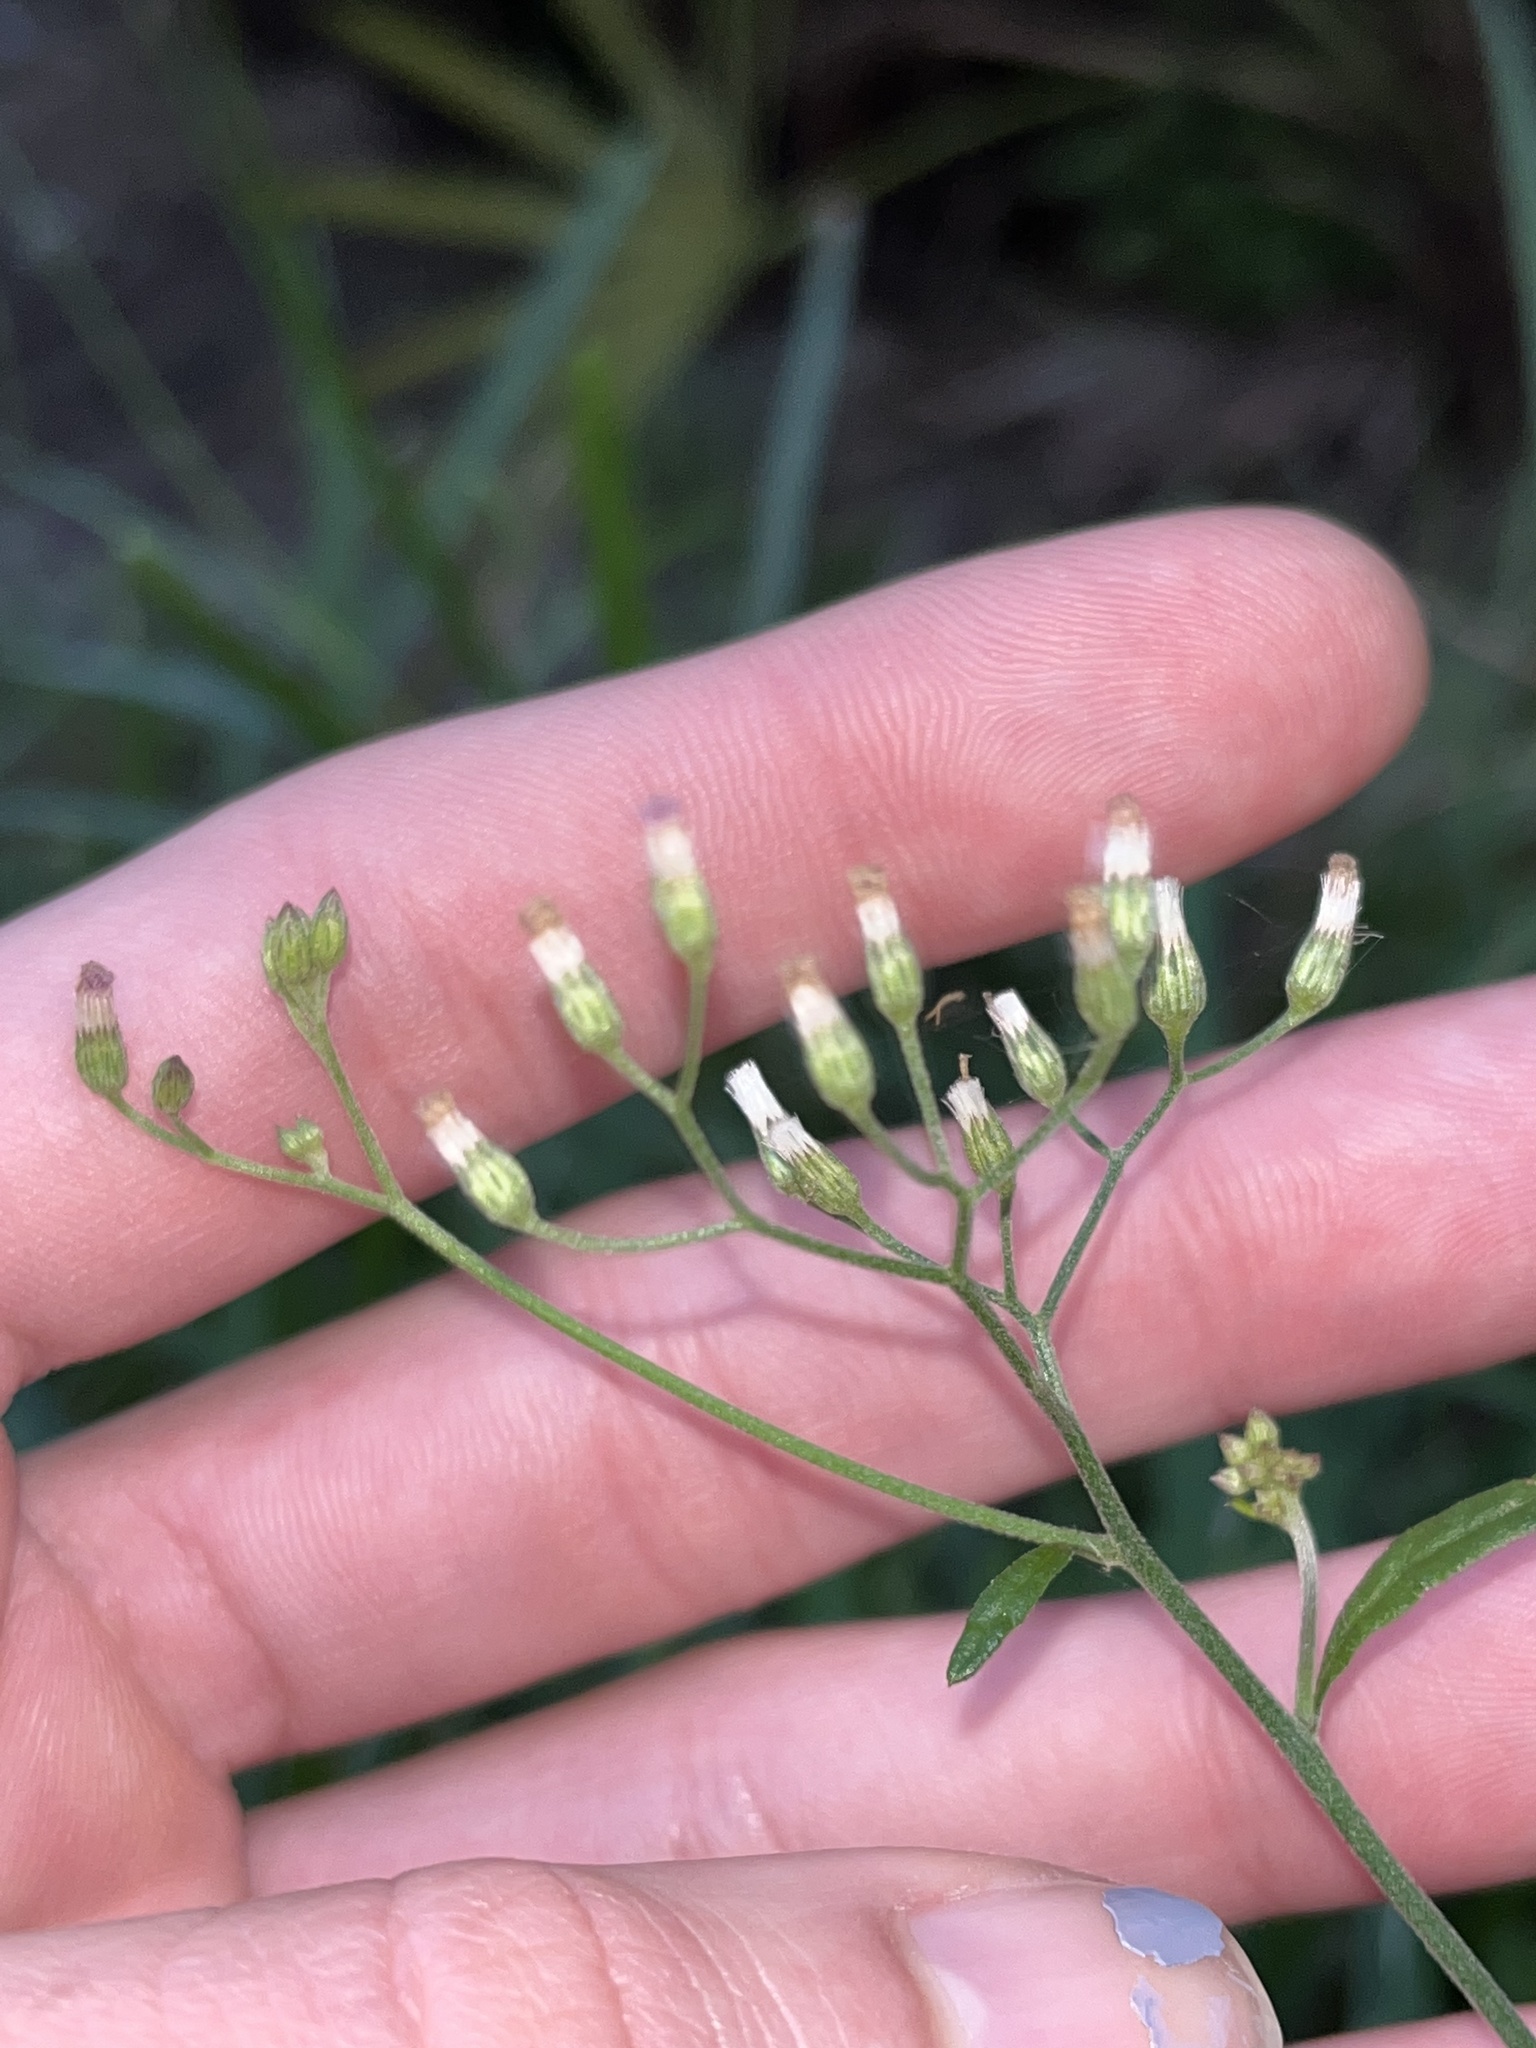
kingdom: Plantae
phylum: Tracheophyta
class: Magnoliopsida
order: Asterales
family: Asteraceae
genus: Cyanthillium
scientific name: Cyanthillium cinereum
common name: Little ironweed
